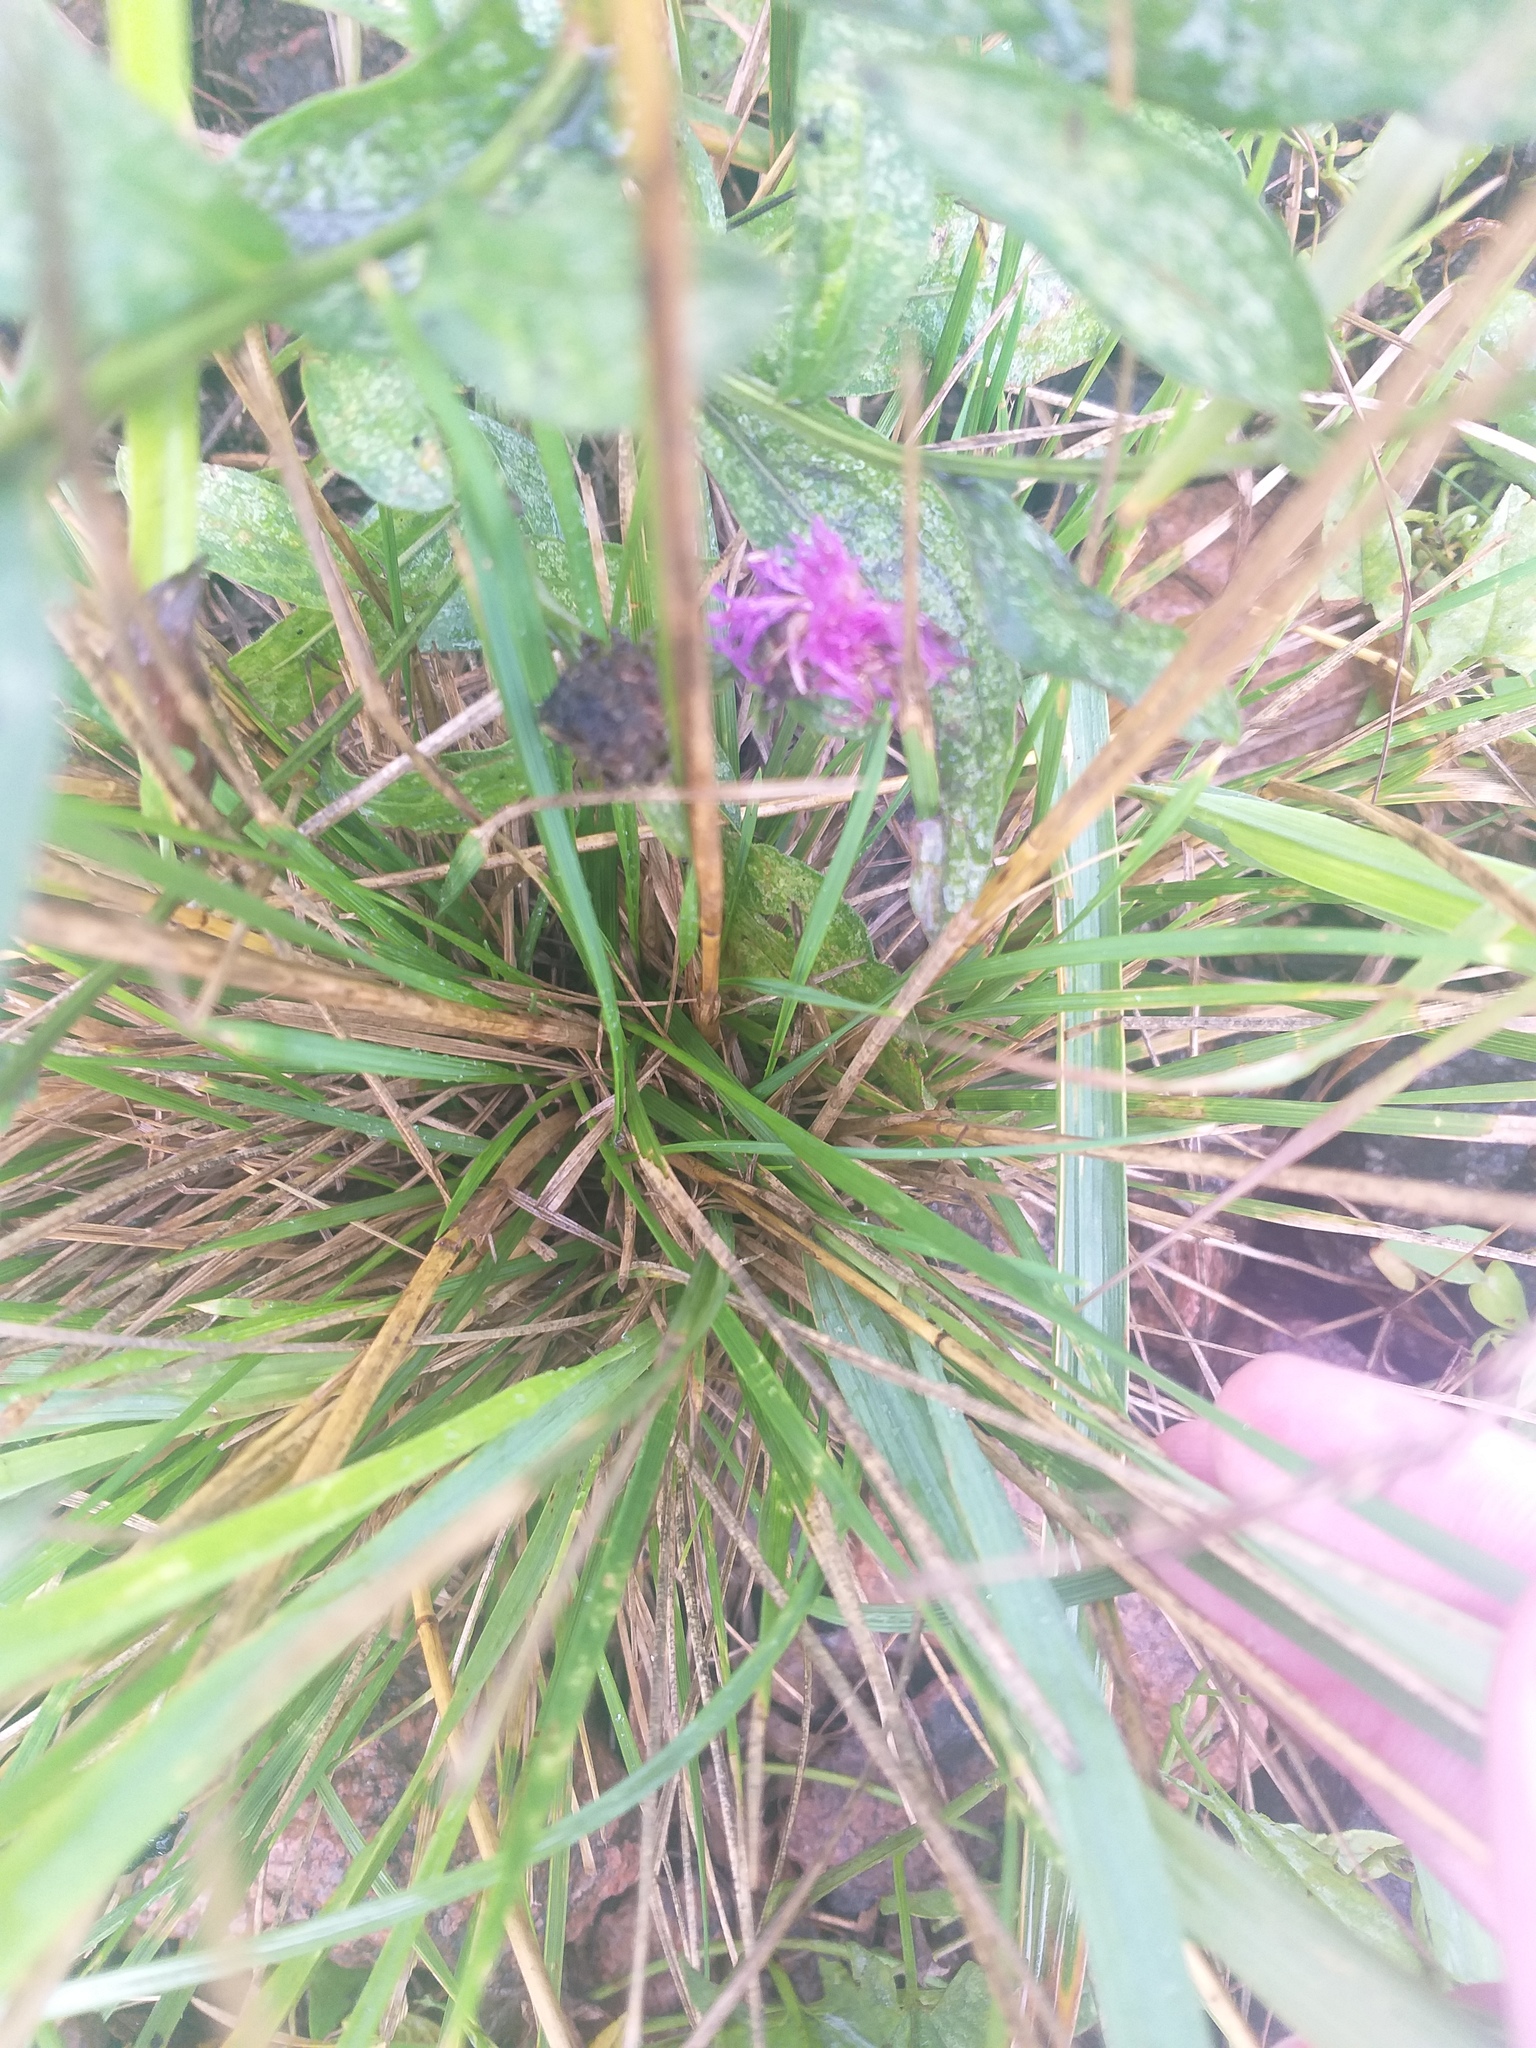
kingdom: Plantae
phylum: Tracheophyta
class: Liliopsida
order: Poales
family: Poaceae
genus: Deschampsia
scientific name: Deschampsia cespitosa
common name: Tufted hair-grass
